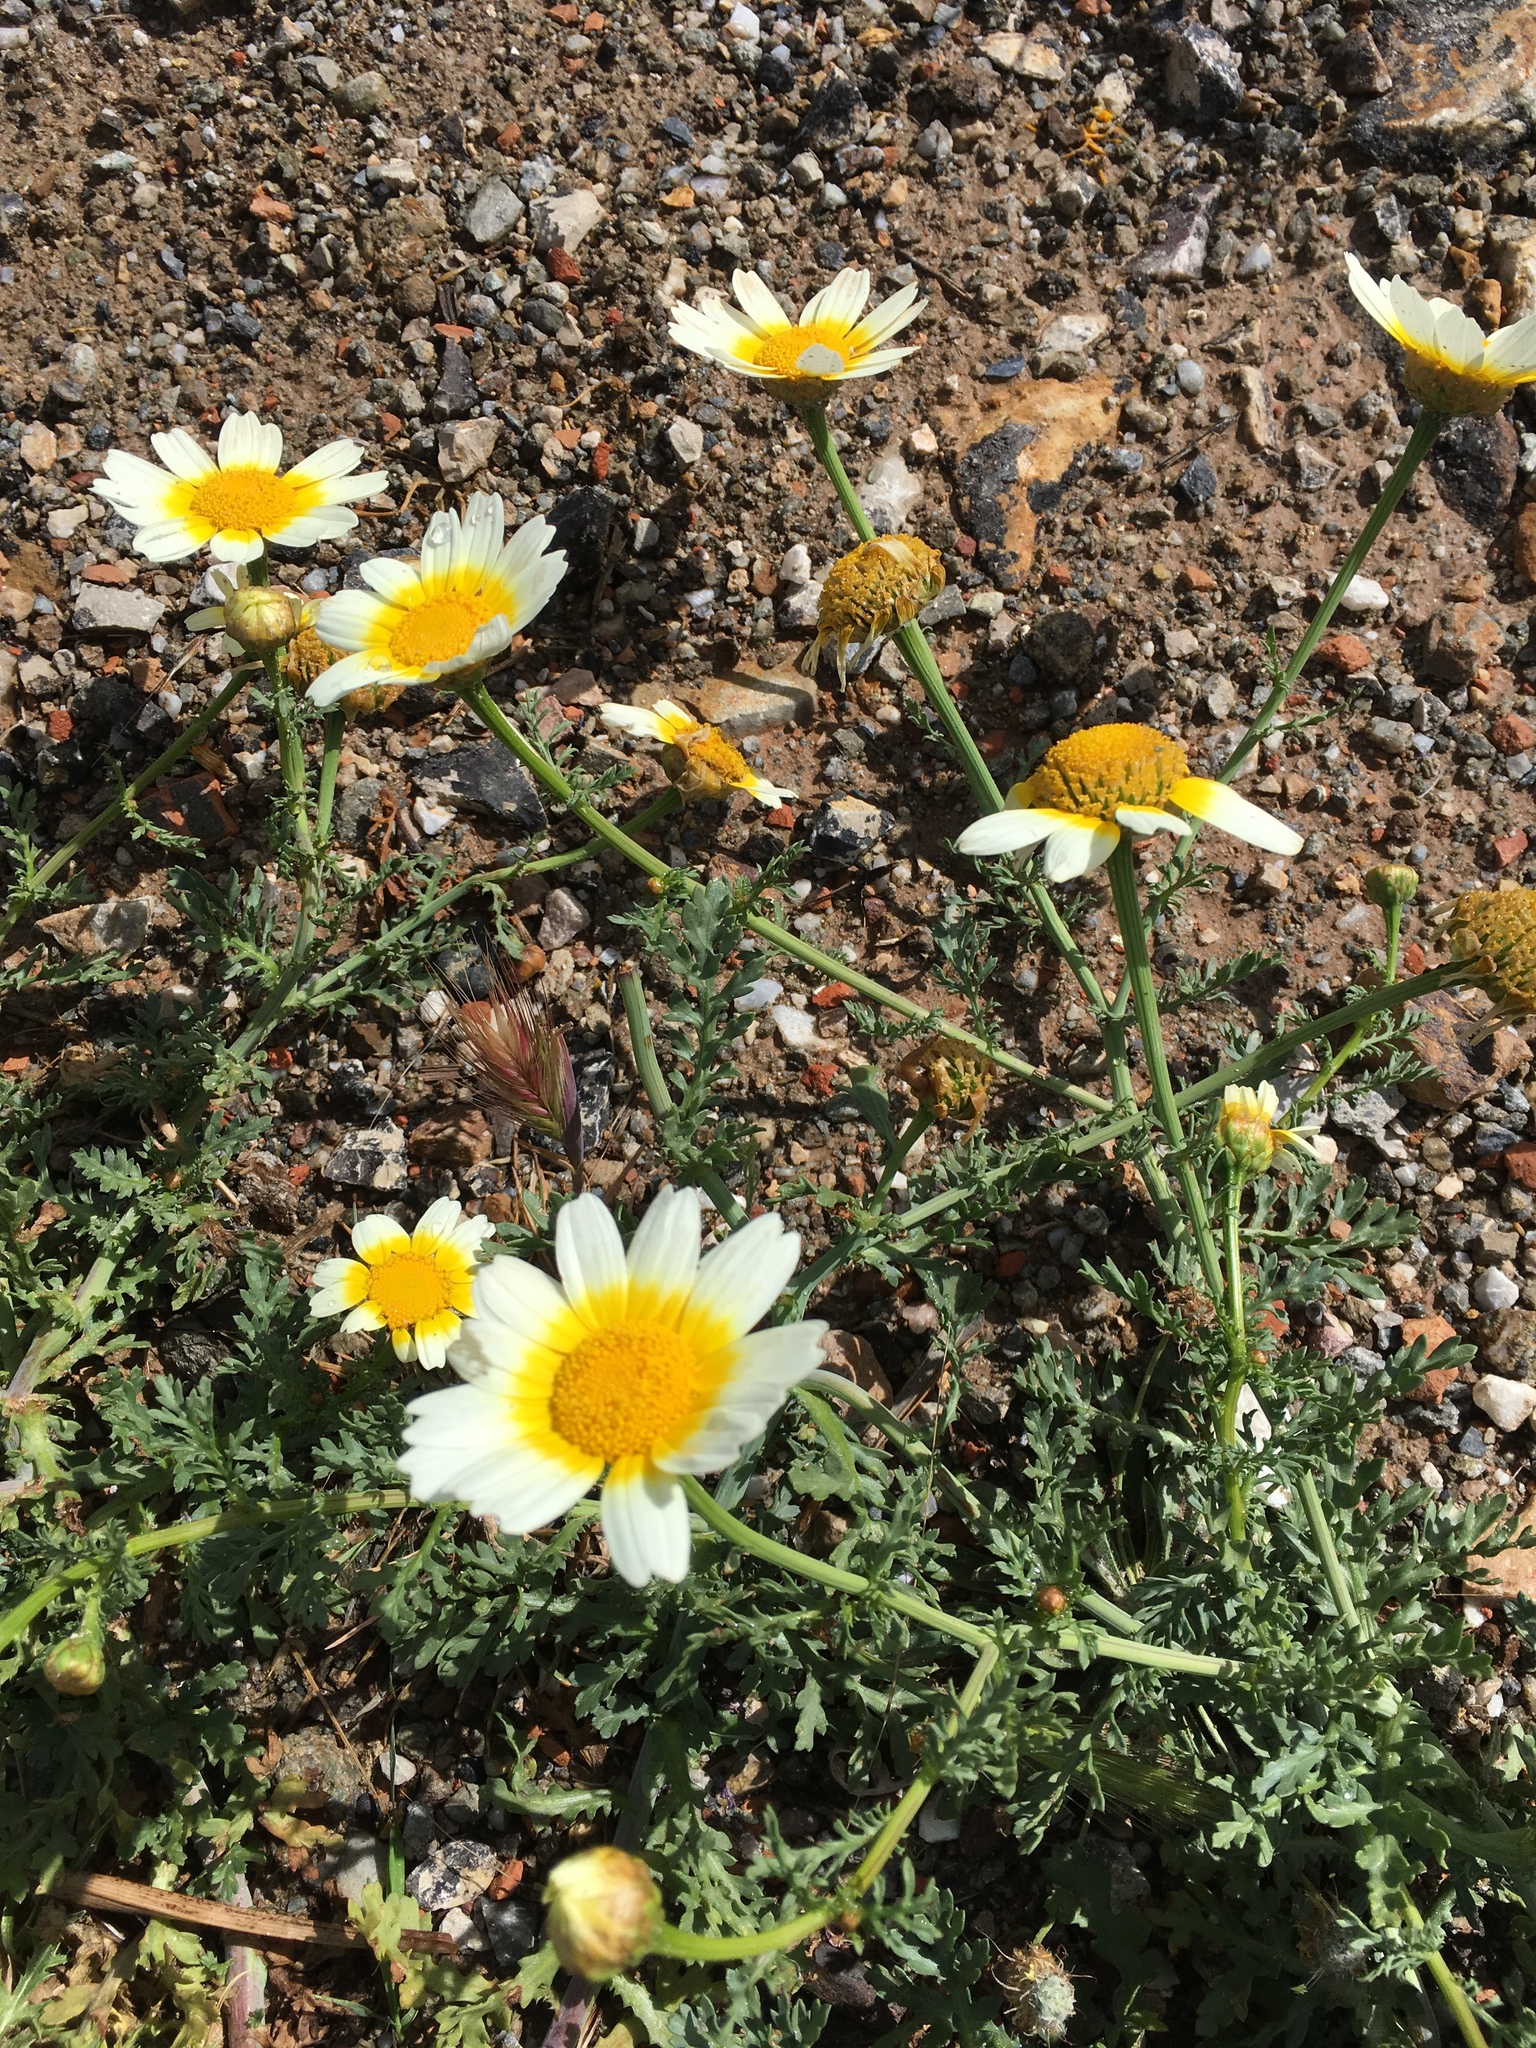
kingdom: Plantae
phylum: Tracheophyta
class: Magnoliopsida
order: Asterales
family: Asteraceae
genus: Glebionis
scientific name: Glebionis coronaria
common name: Crowndaisy
